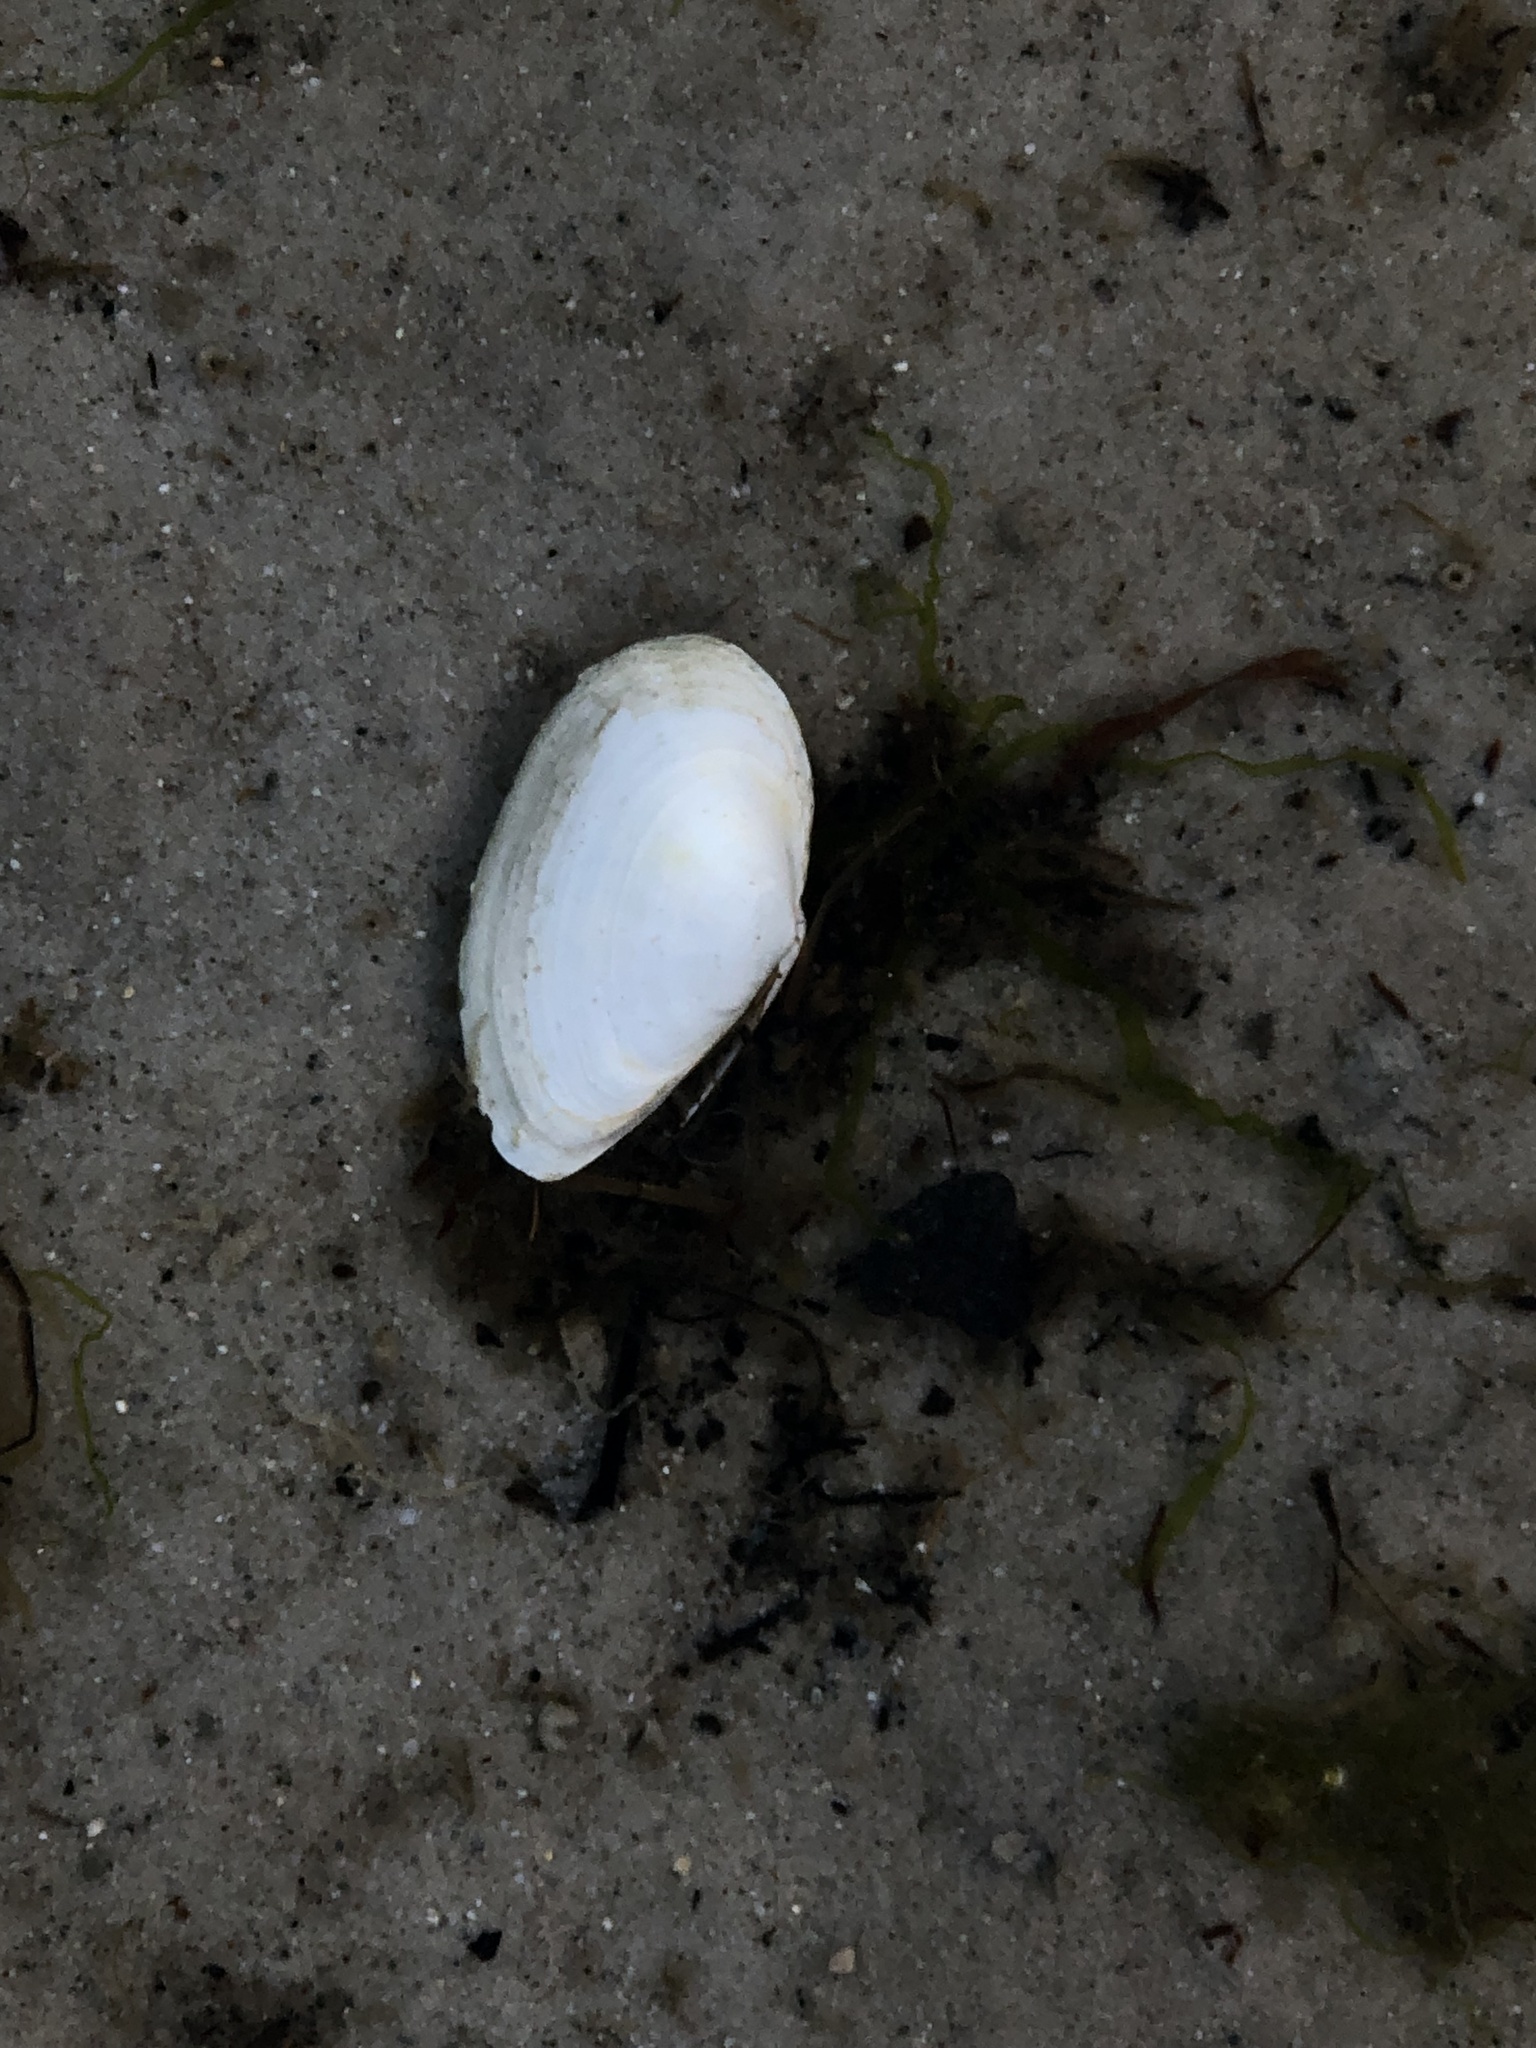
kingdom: Animalia
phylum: Mollusca
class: Bivalvia
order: Myida
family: Myidae
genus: Mya
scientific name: Mya arenaria
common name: Soft-shelled clam
